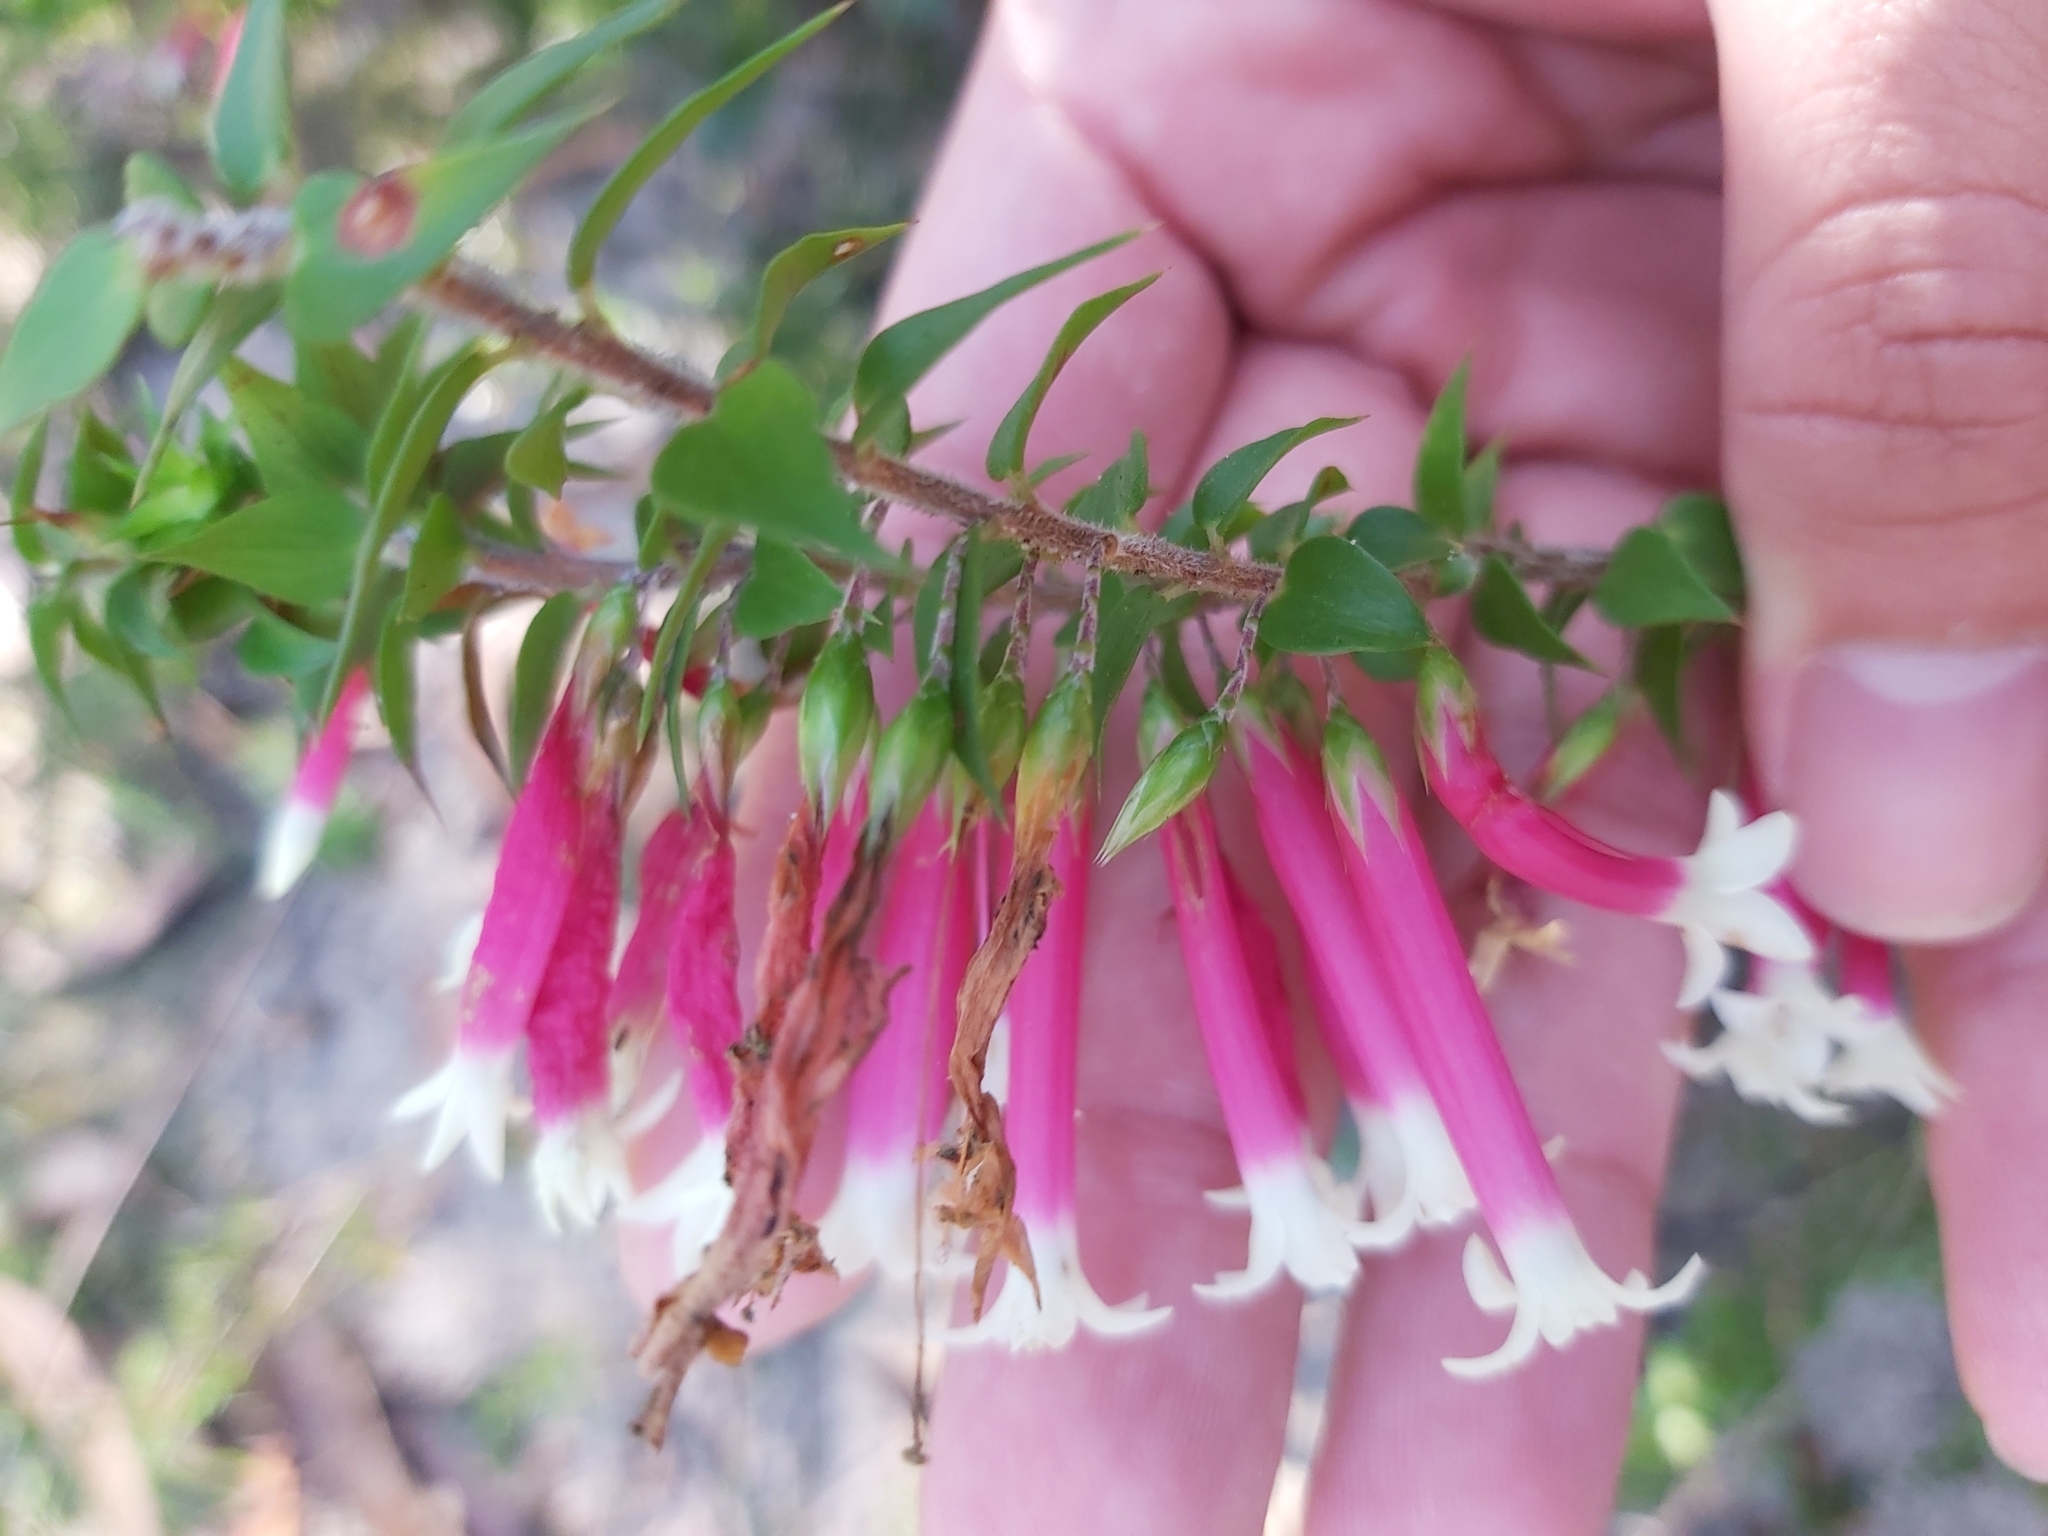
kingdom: Plantae
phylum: Tracheophyta
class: Magnoliopsida
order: Ericales
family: Ericaceae
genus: Epacris
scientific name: Epacris longiflora
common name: Fuchsia-heath
